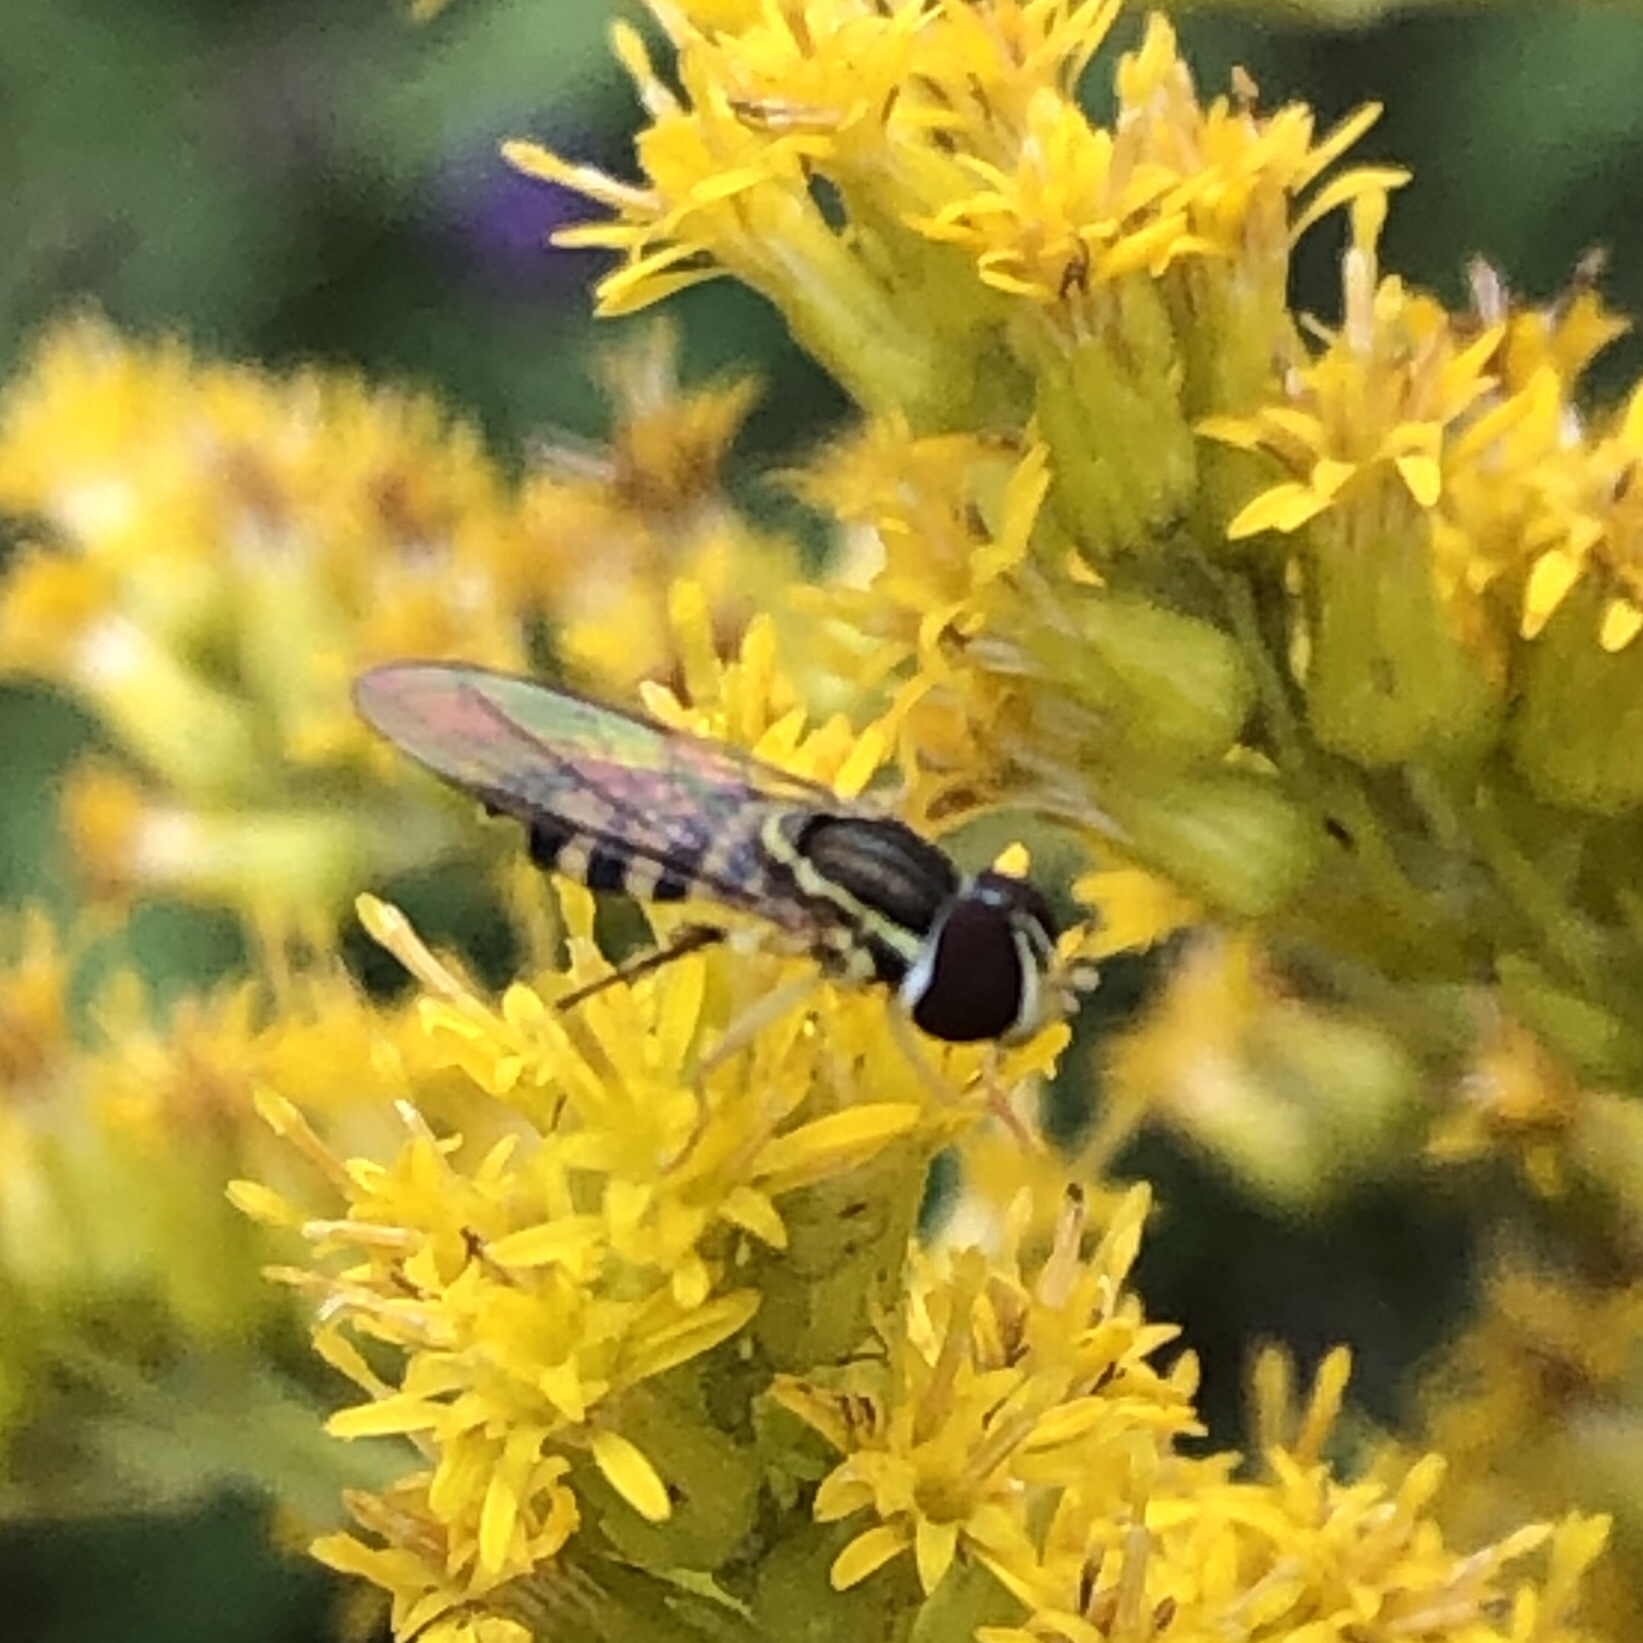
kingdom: Animalia
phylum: Arthropoda
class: Insecta
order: Diptera
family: Syrphidae
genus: Toxomerus
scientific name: Toxomerus geminatus
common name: Eastern calligrapher
